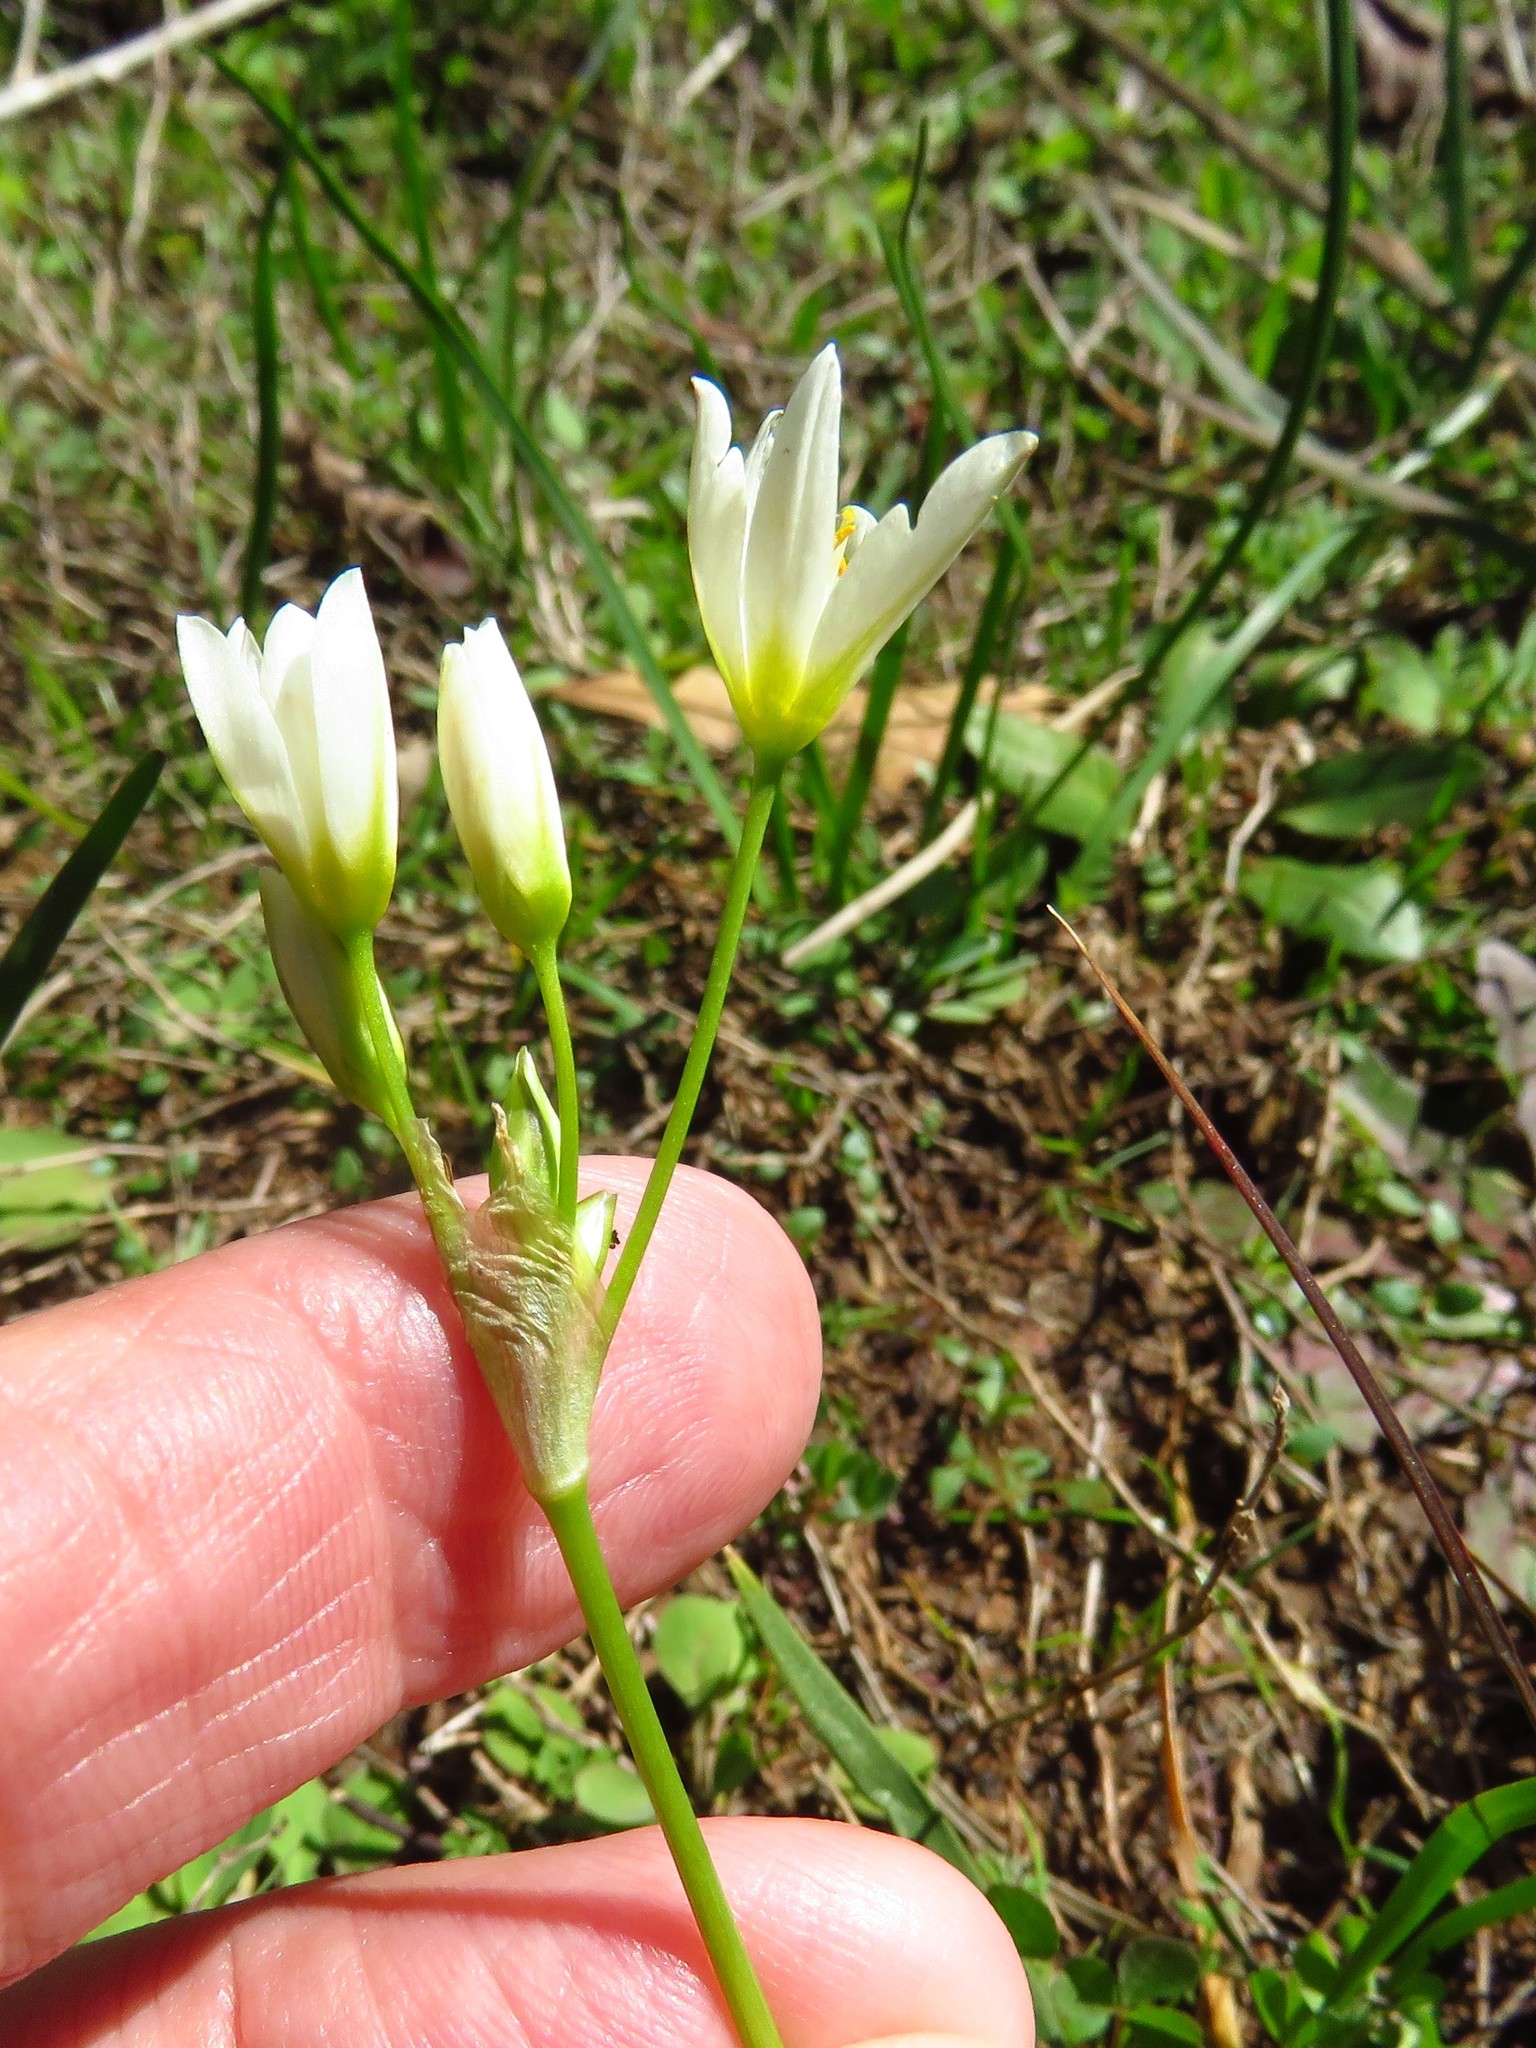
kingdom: Plantae
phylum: Tracheophyta
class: Liliopsida
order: Asparagales
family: Amaryllidaceae
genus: Nothoscordum
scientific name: Nothoscordum bivalve
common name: Crow-poison
